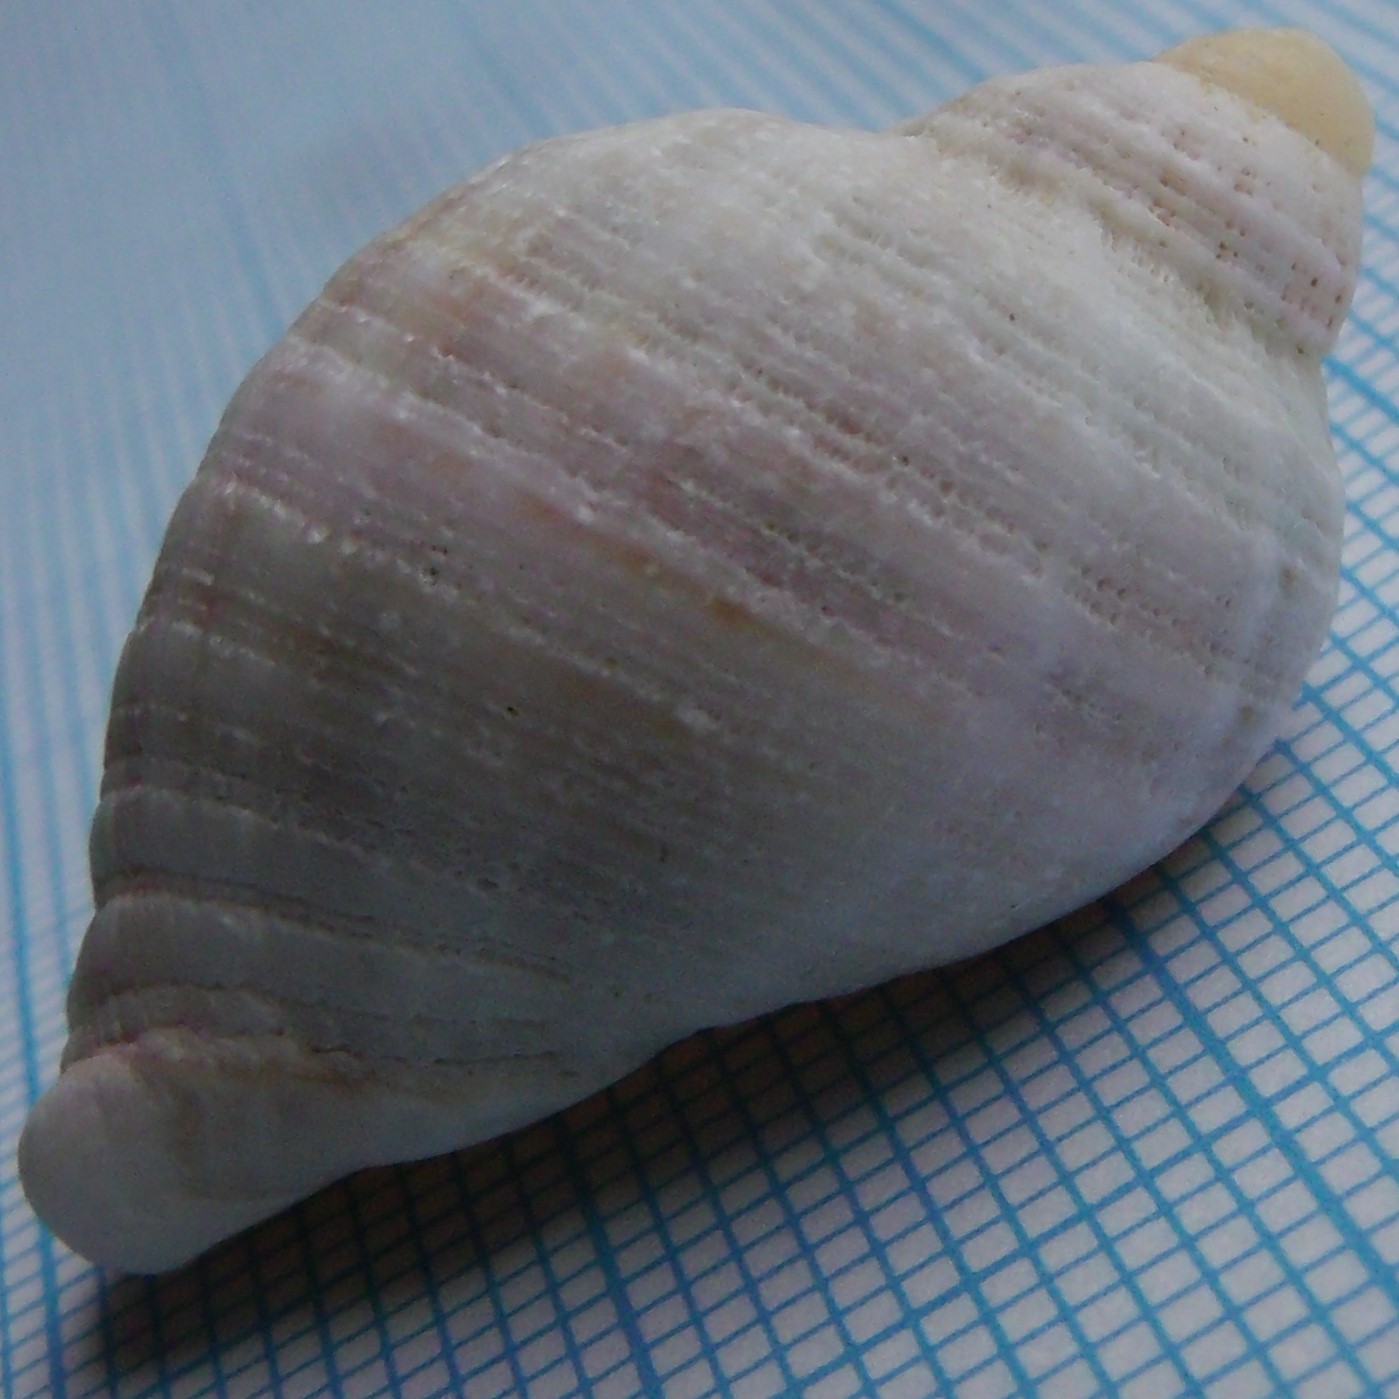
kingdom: Animalia
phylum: Mollusca
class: Gastropoda
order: Neogastropoda
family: Muricidae
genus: Dicathais
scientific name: Dicathais orbita
